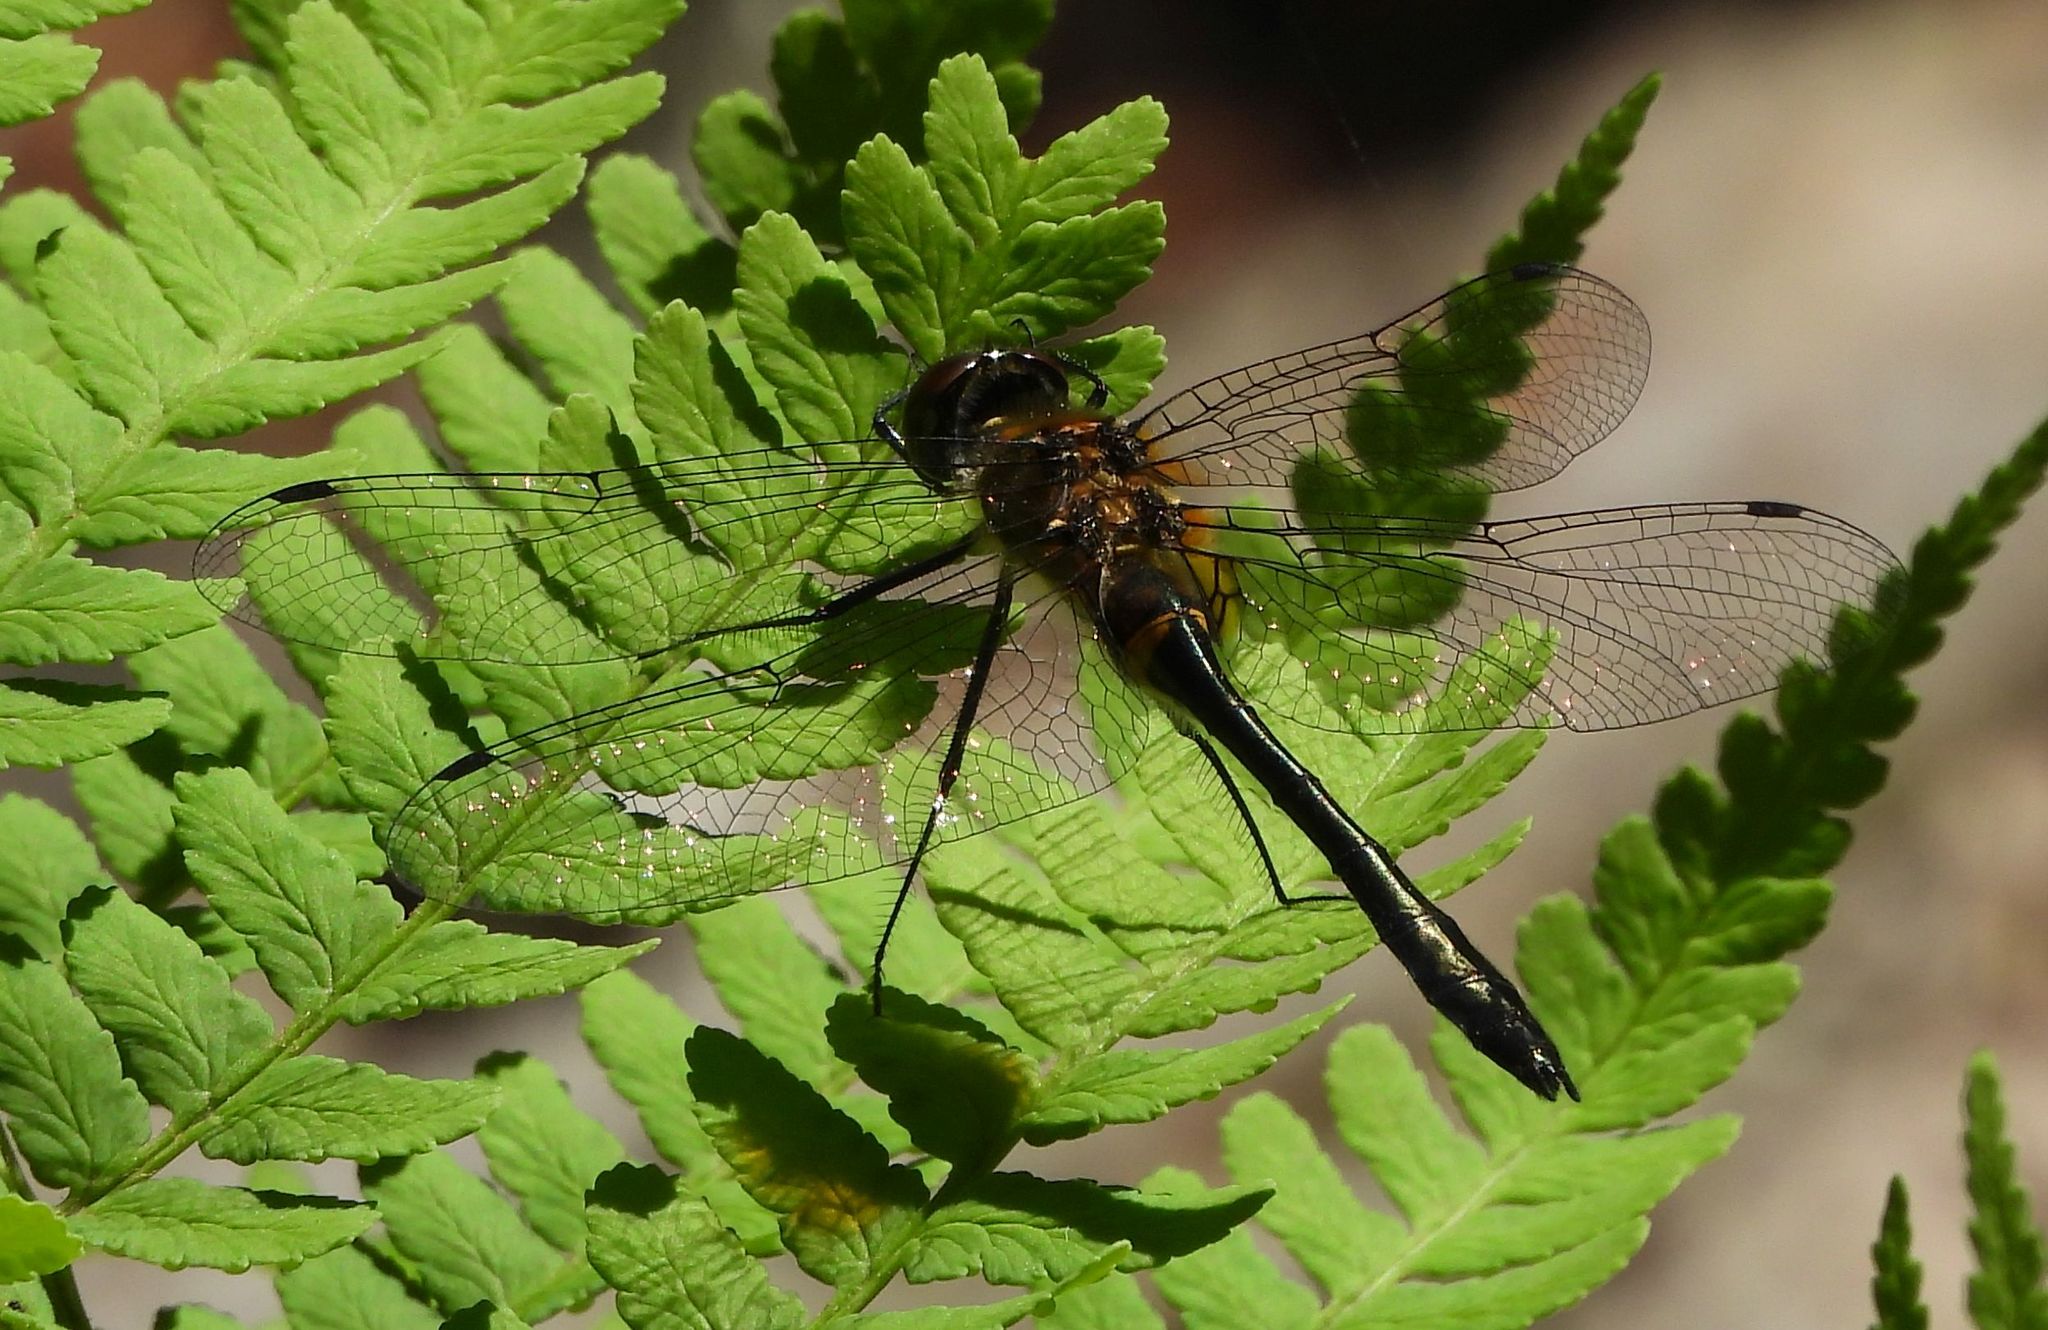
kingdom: Animalia
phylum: Arthropoda
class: Insecta
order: Odonata
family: Corduliidae
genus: Dorocordulia
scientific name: Dorocordulia libera
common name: Racket-tailed emerald
